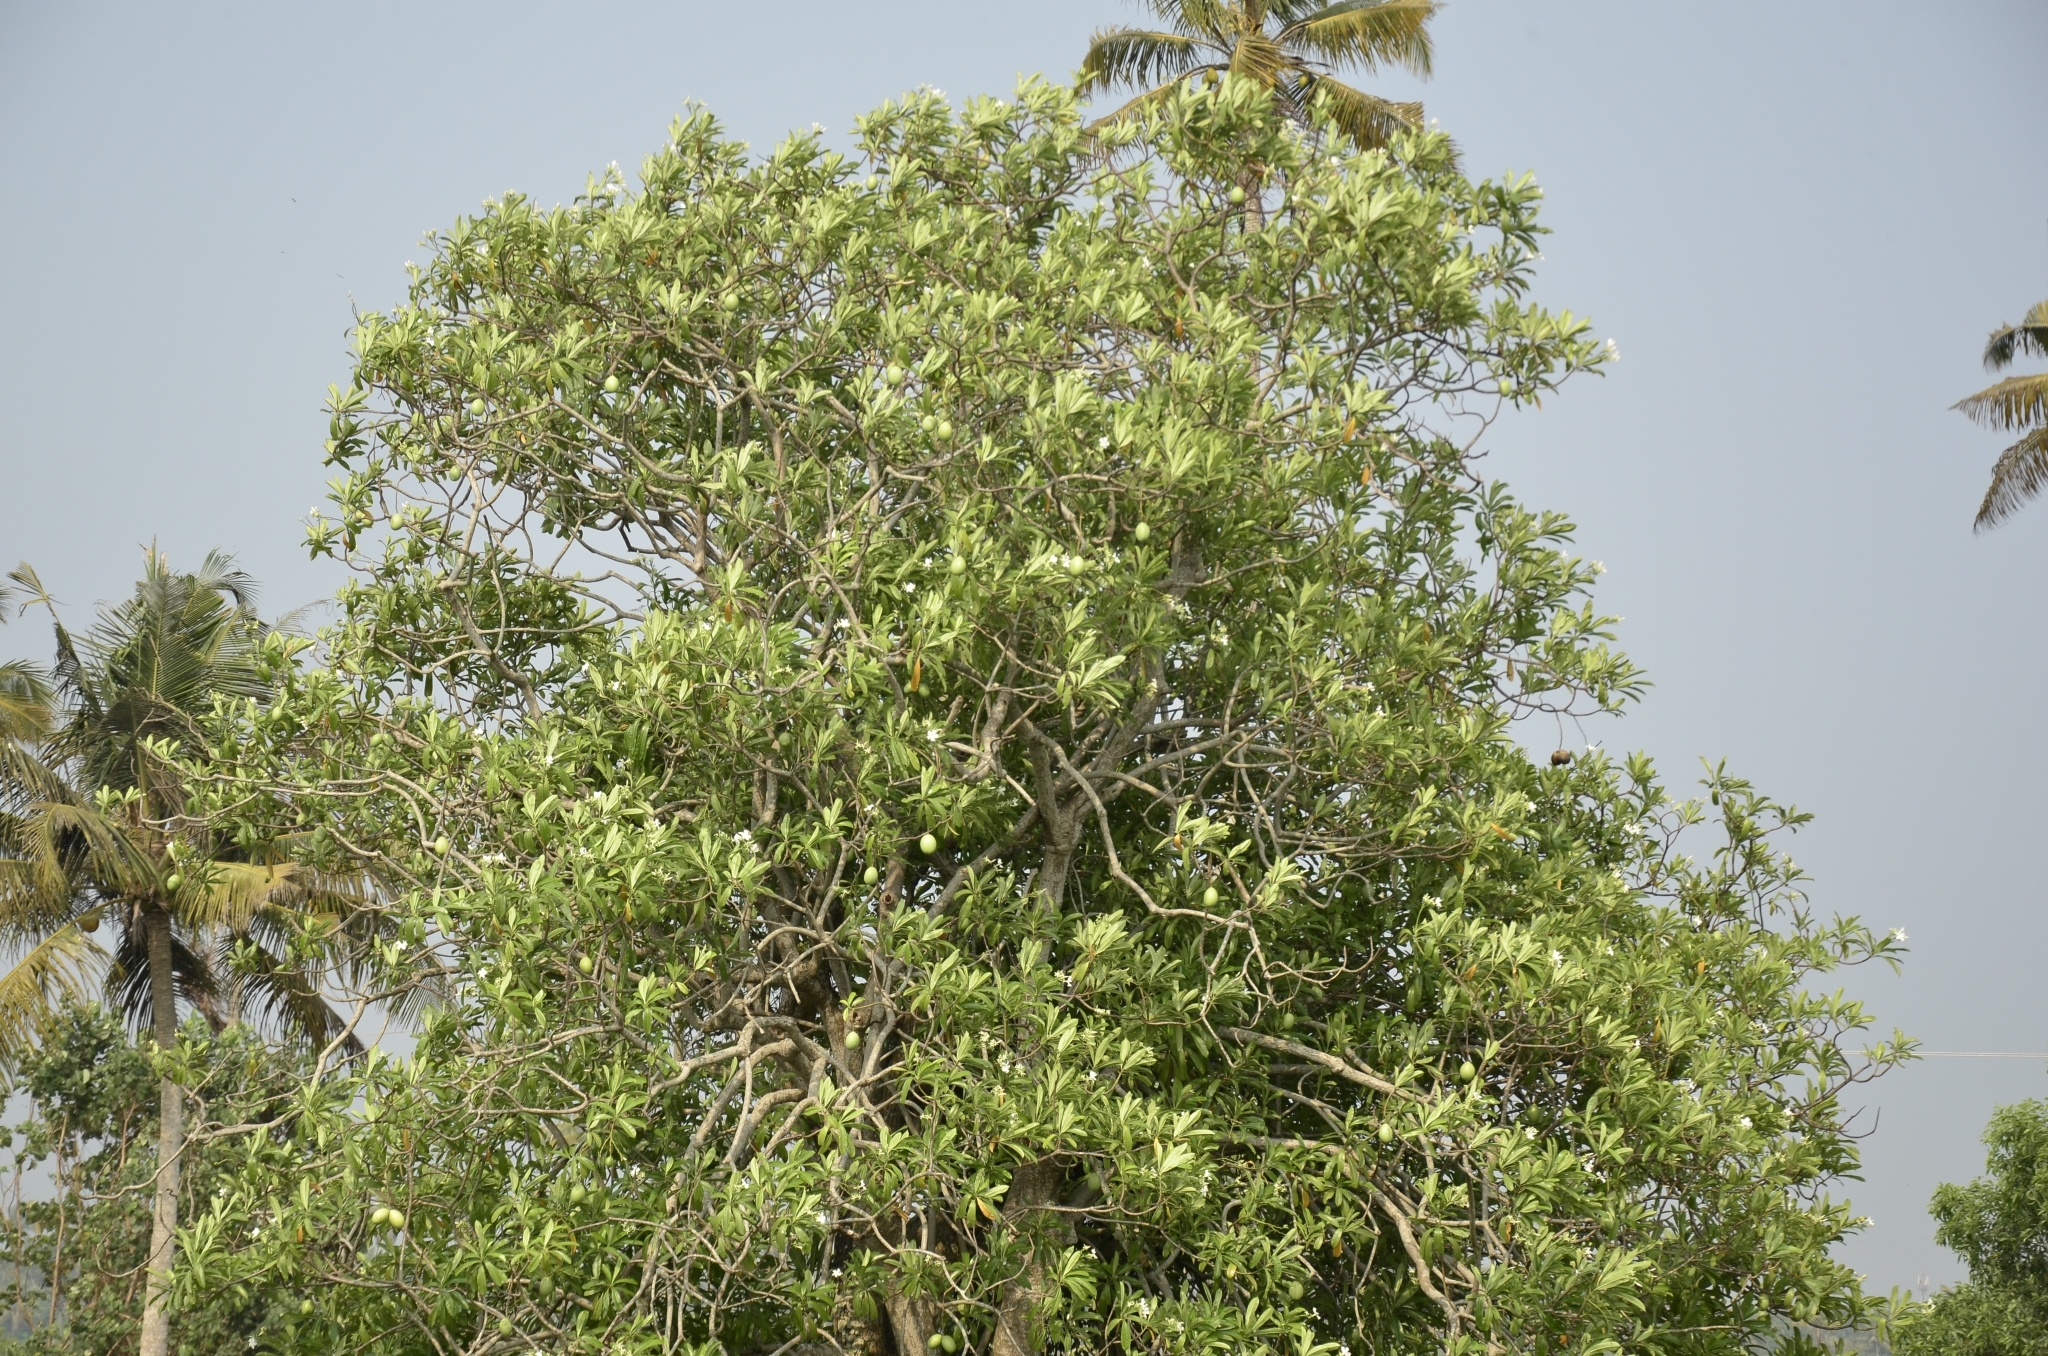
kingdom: Plantae
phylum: Tracheophyta
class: Magnoliopsida
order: Gentianales
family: Apocynaceae
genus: Cerbera
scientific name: Cerbera odollam
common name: Pong-pong
